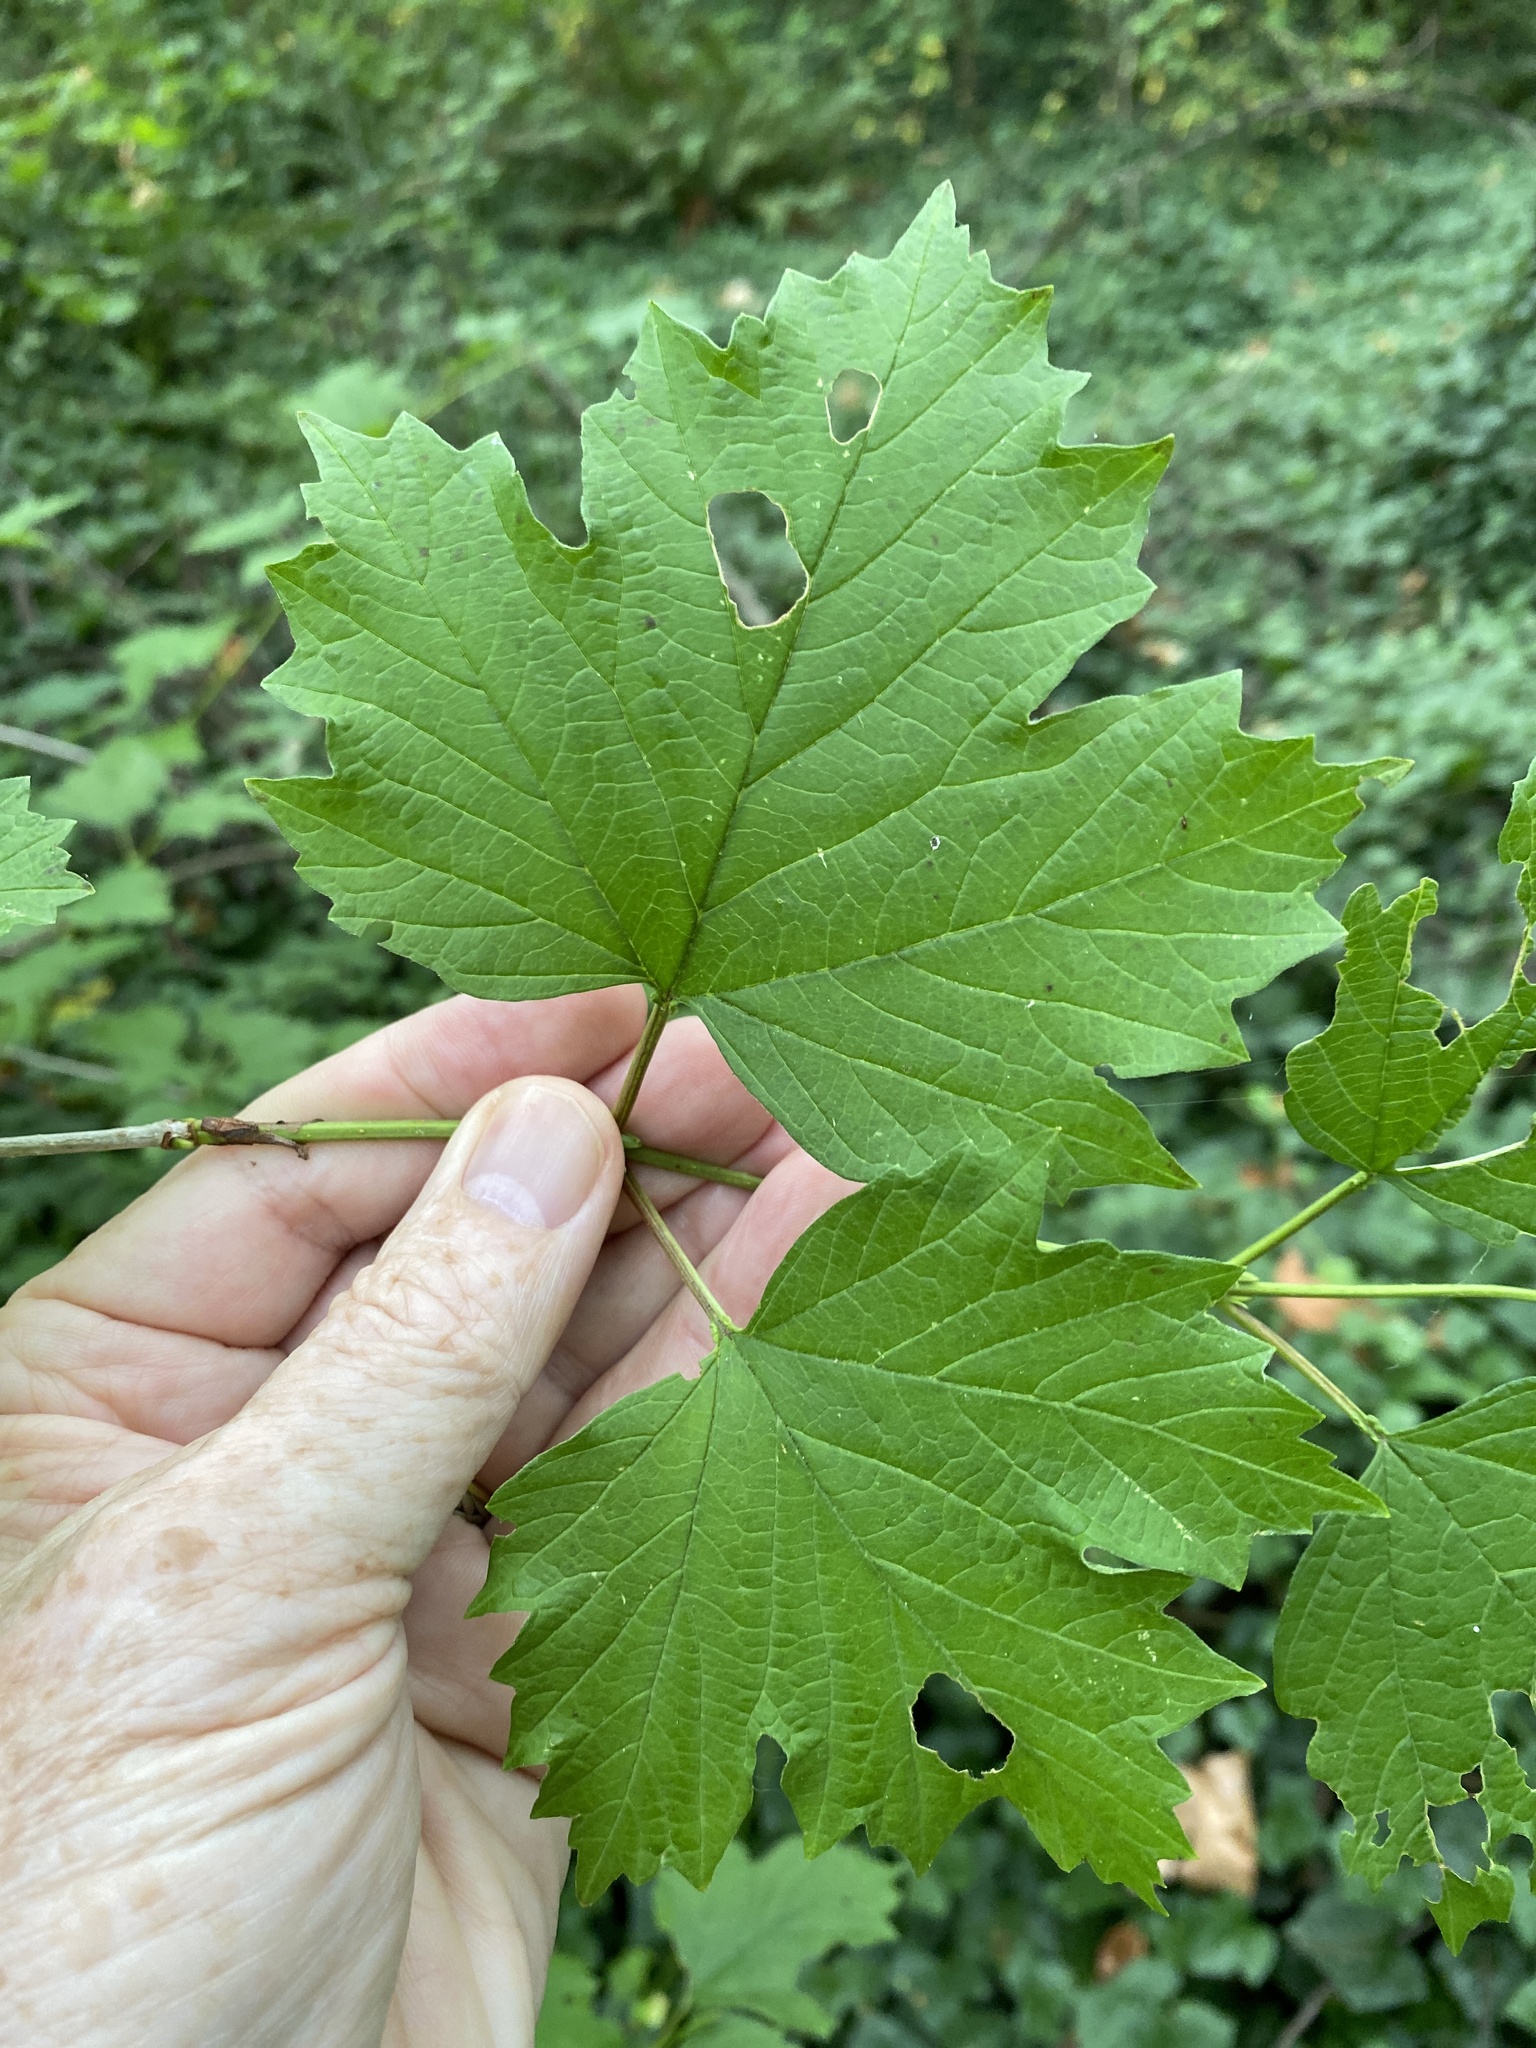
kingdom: Plantae
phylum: Tracheophyta
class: Magnoliopsida
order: Dipsacales
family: Viburnaceae
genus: Viburnum
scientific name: Viburnum opulus
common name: Guelder-rose
